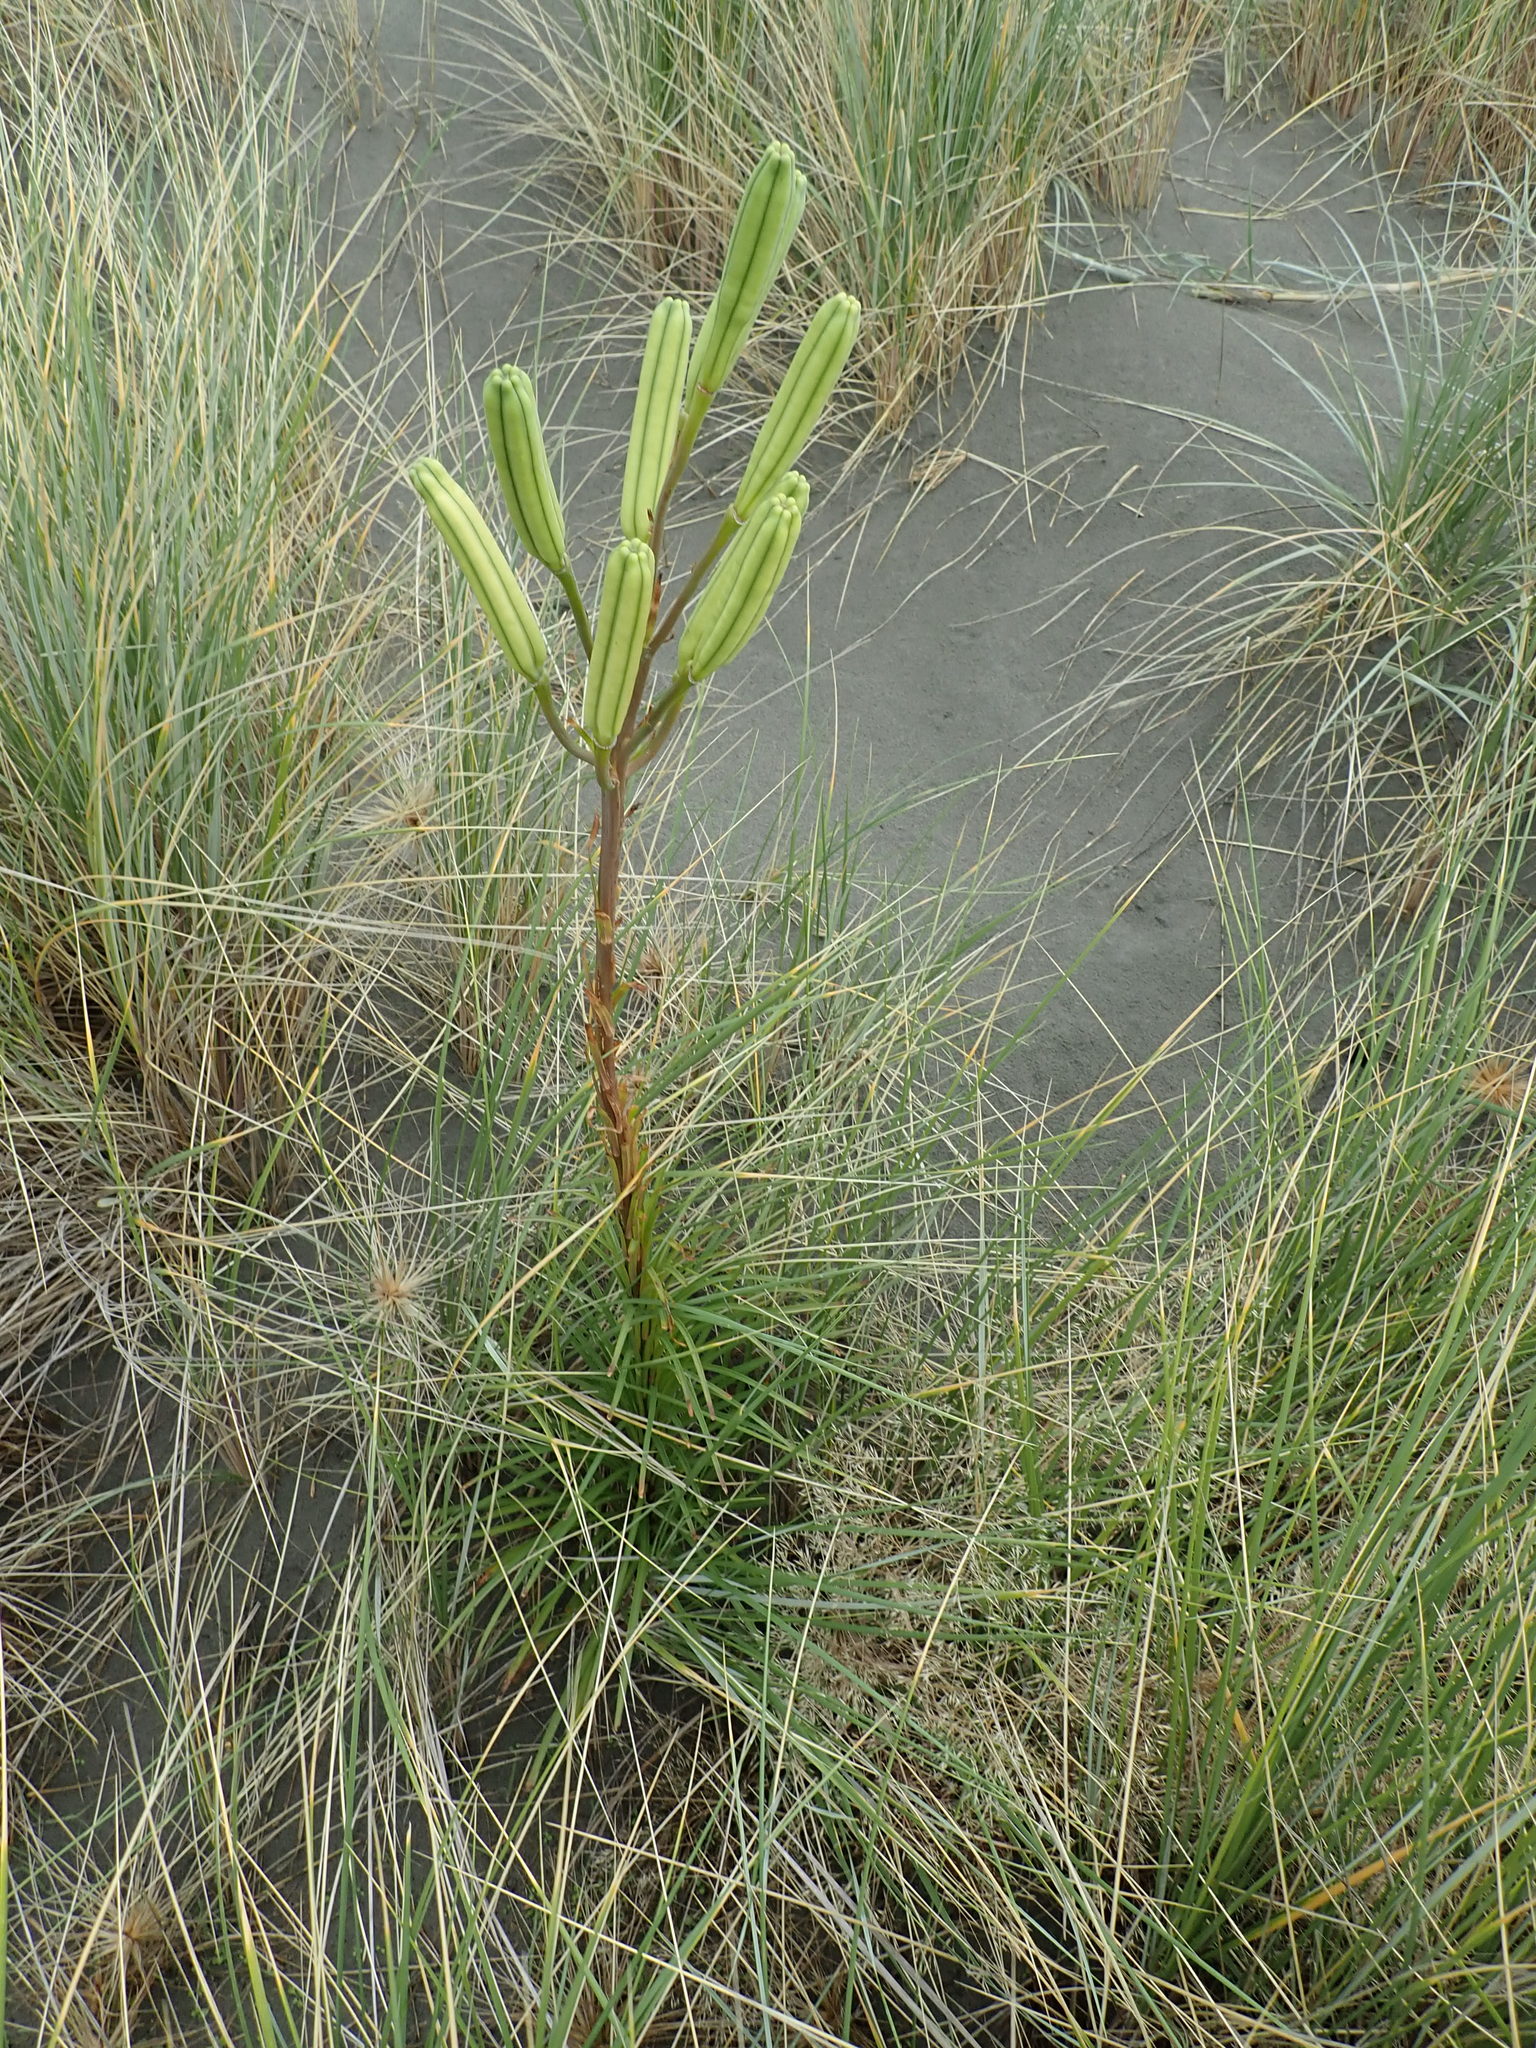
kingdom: Plantae
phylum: Tracheophyta
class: Liliopsida
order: Liliales
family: Liliaceae
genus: Lilium
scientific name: Lilium formosanum
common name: Formosa lily
